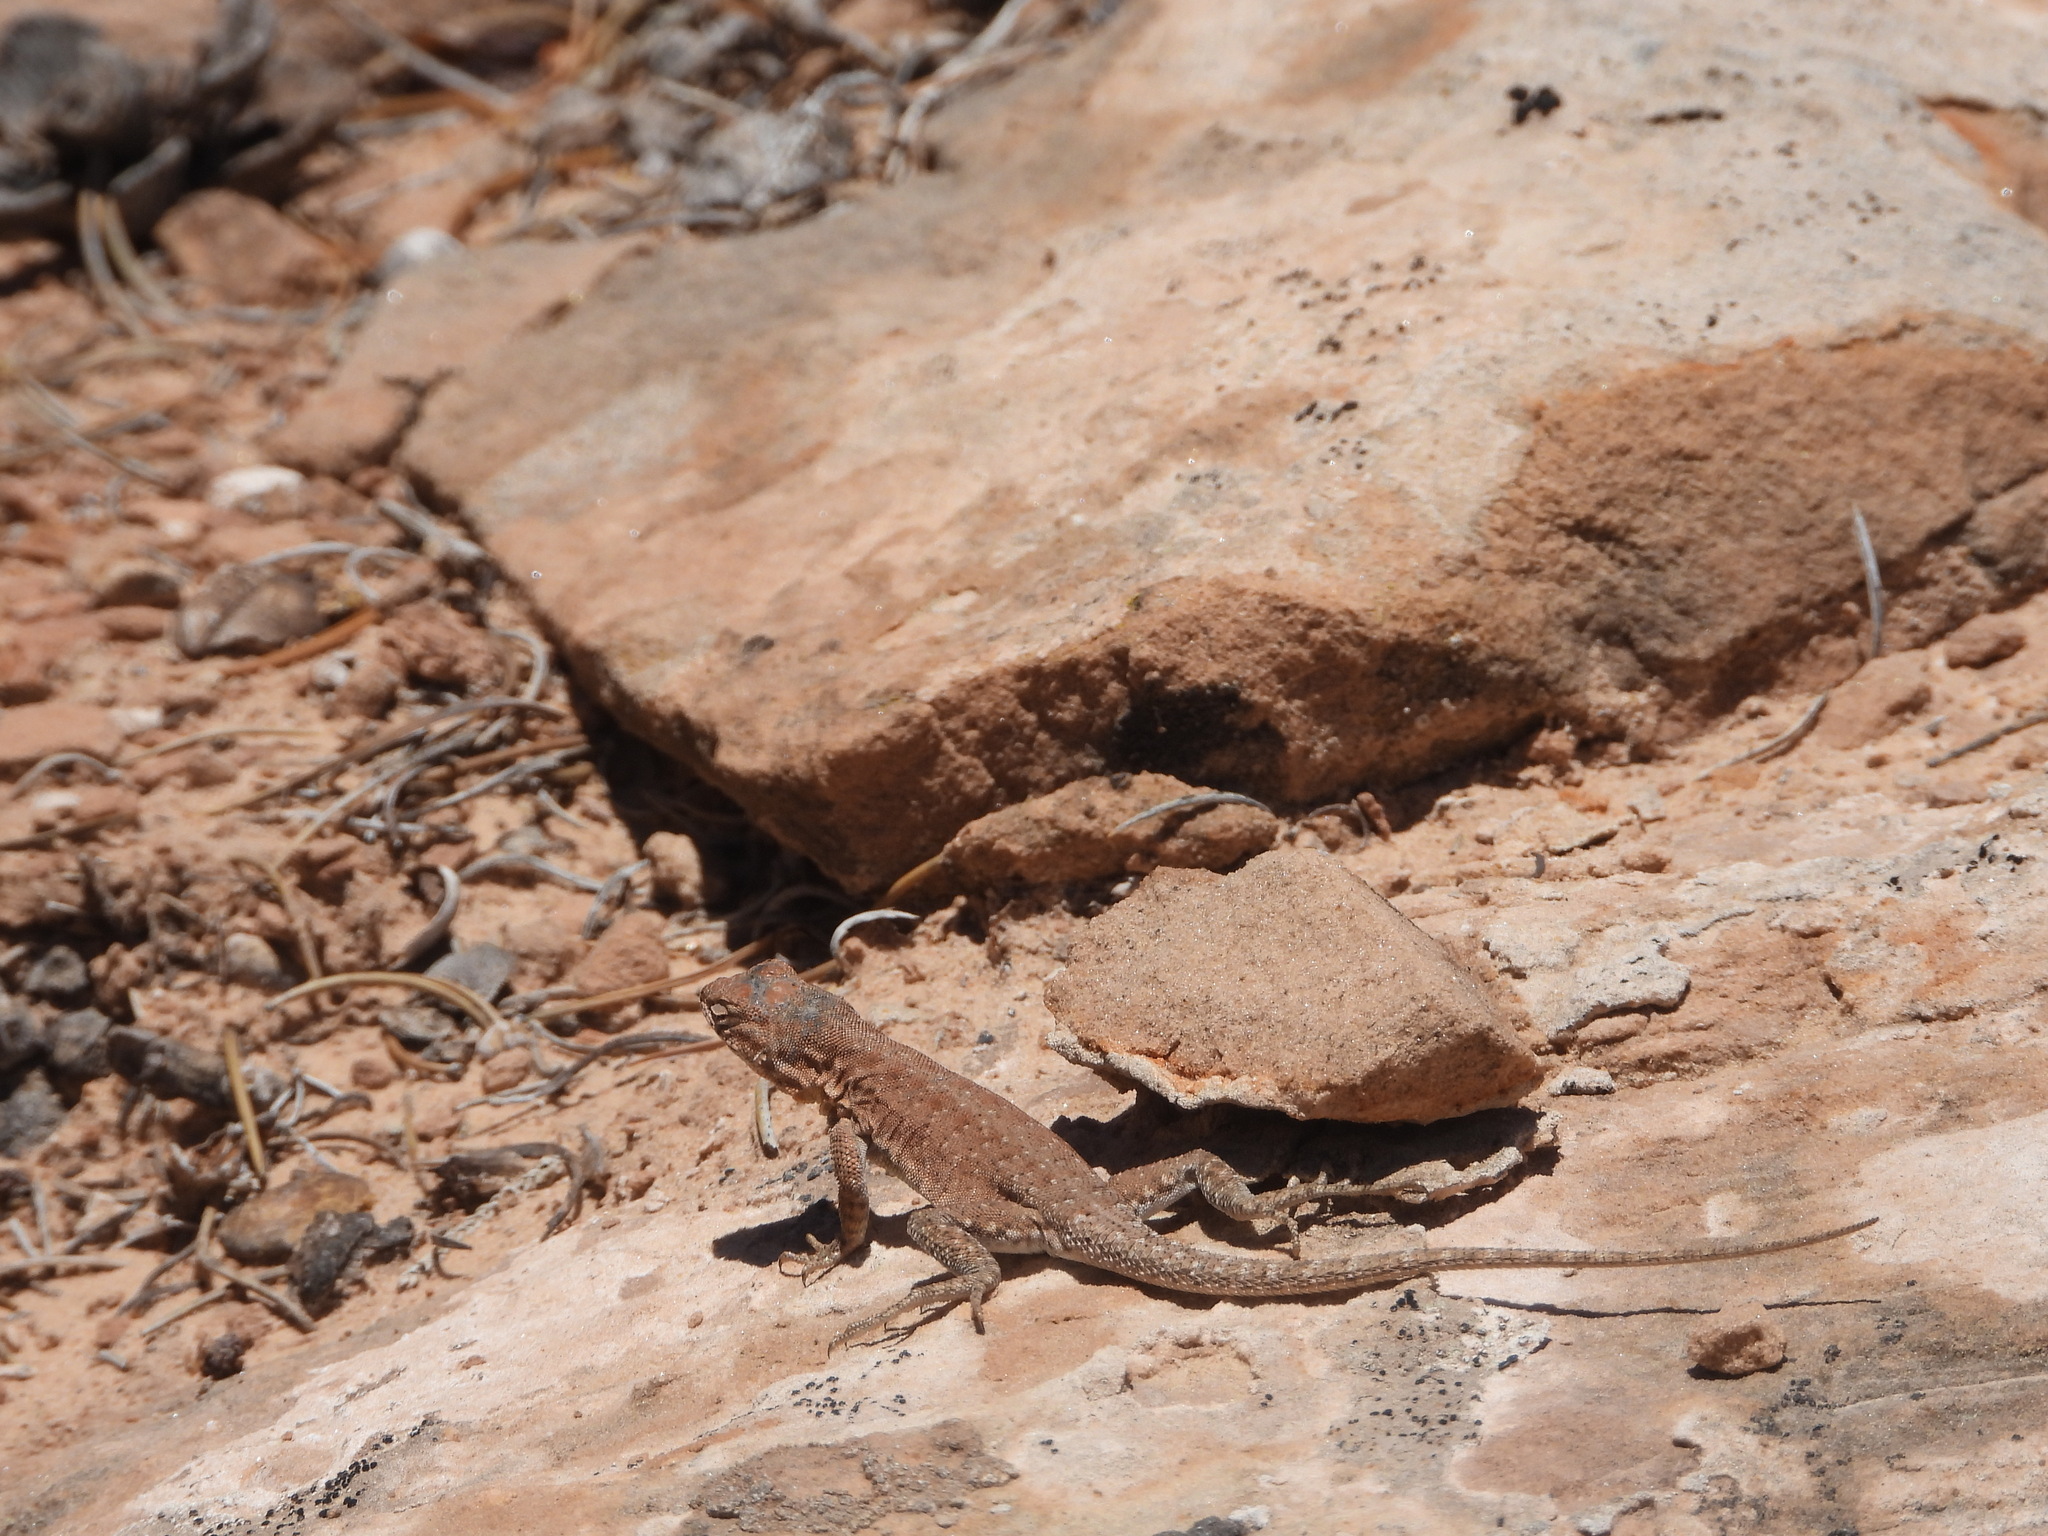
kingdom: Animalia
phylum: Chordata
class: Squamata
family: Phrynosomatidae
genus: Uta
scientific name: Uta stansburiana
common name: Side-blotched lizard
